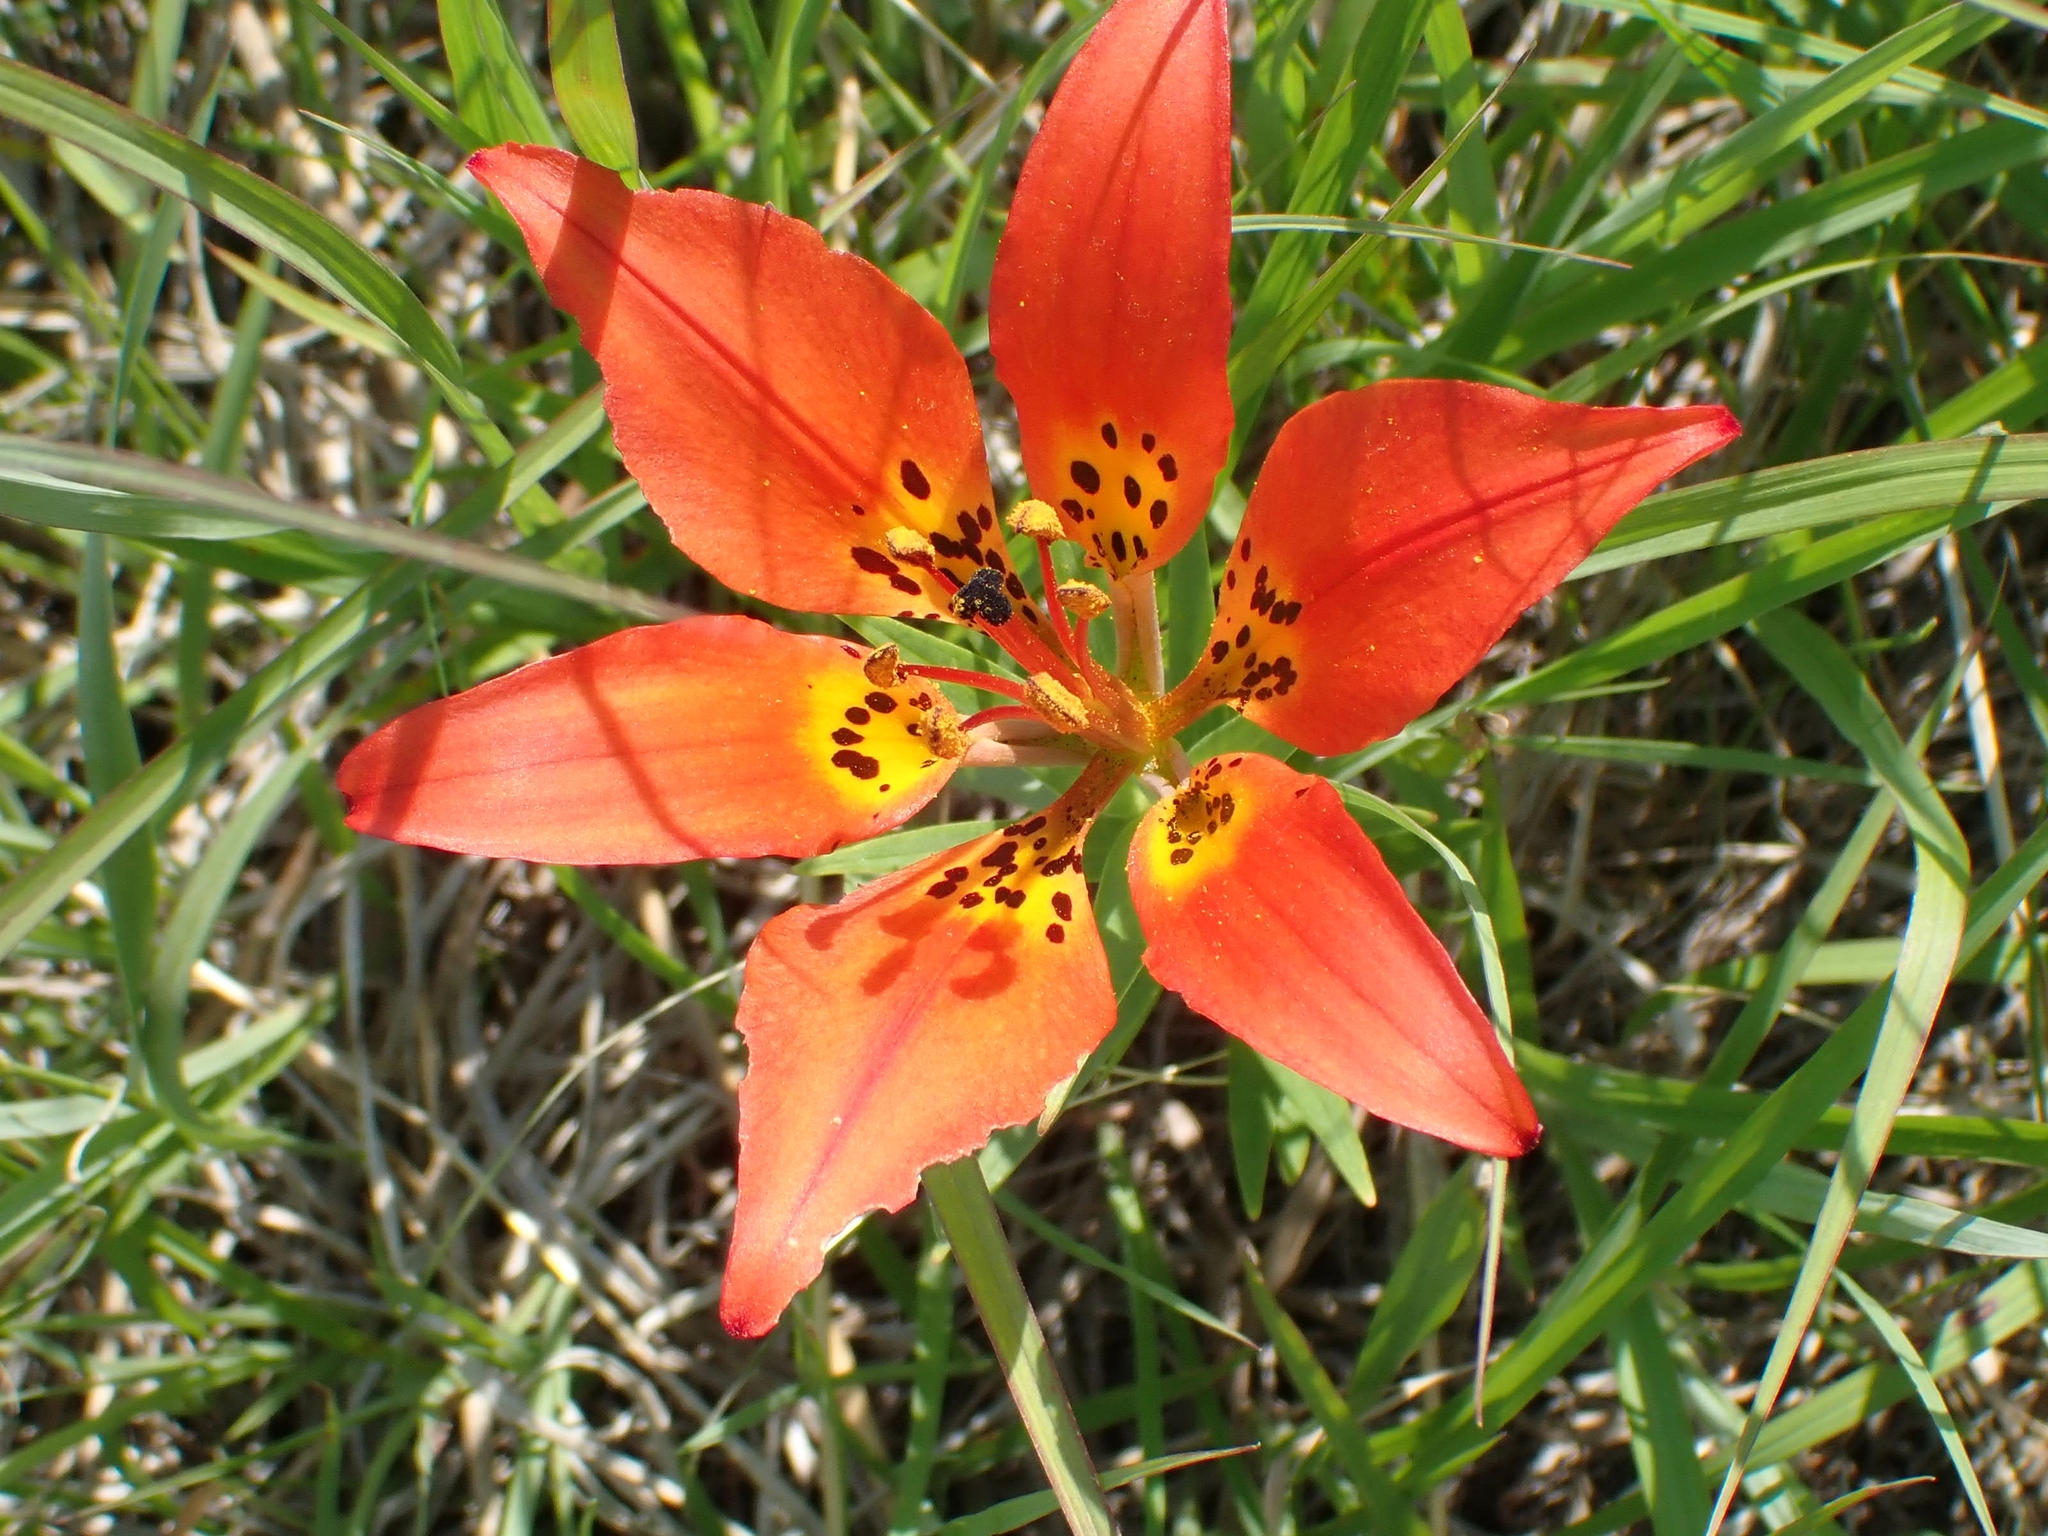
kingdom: Plantae
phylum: Tracheophyta
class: Liliopsida
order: Liliales
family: Liliaceae
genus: Lilium
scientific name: Lilium philadelphicum
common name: Red lily
